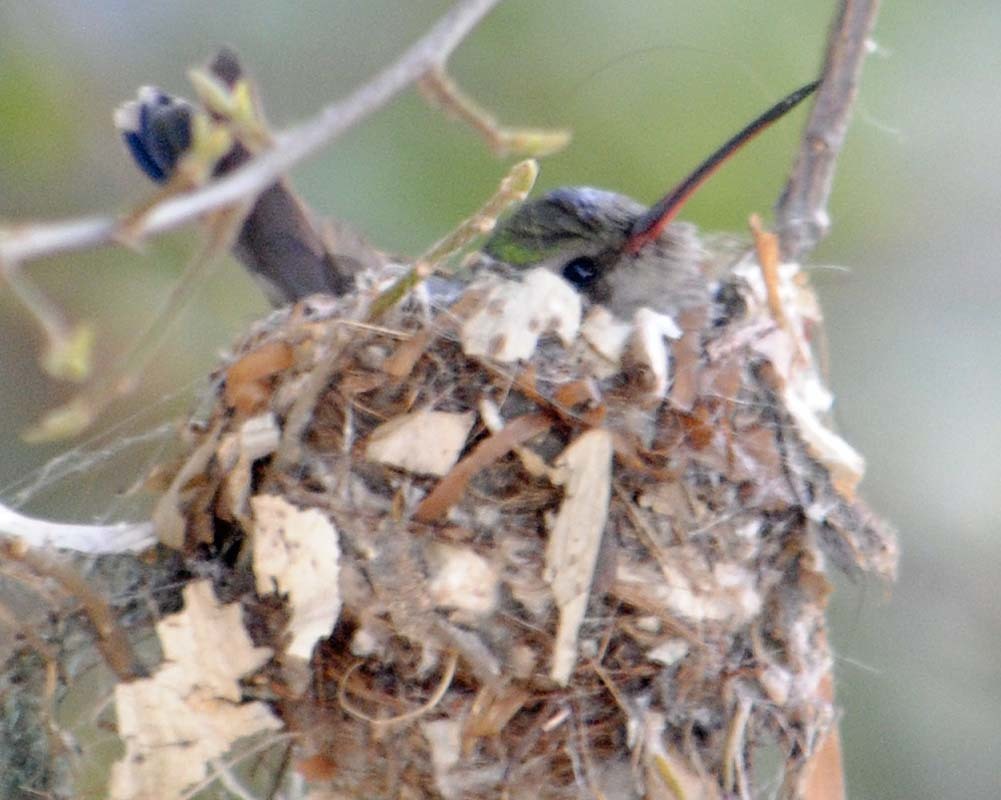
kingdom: Animalia
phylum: Chordata
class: Aves
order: Apodiformes
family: Trochilidae
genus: Cynanthus
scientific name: Cynanthus latirostris
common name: Broad-billed hummingbird
